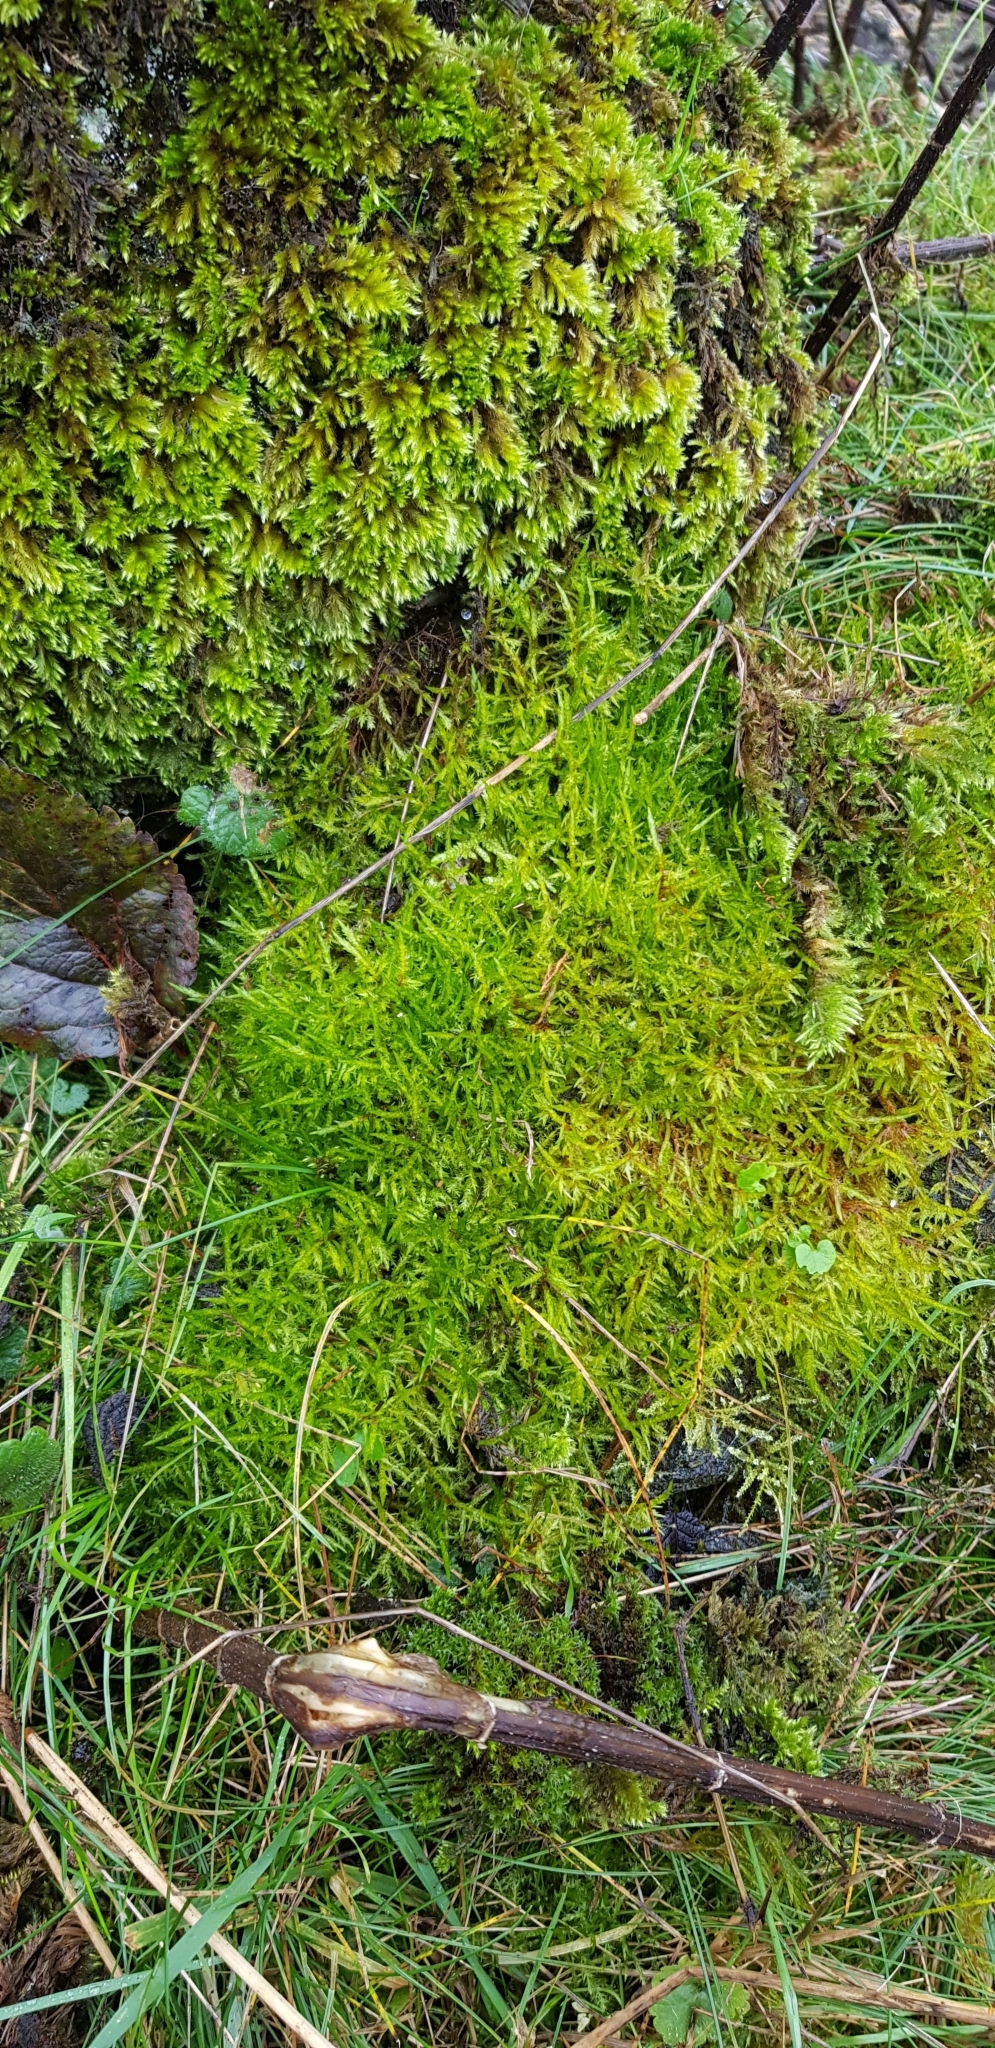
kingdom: Plantae
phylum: Bryophyta
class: Bryopsida
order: Hypnales
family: Brachytheciaceae
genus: Homalothecium
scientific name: Homalothecium sericeum
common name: Silky wall feather-moss
